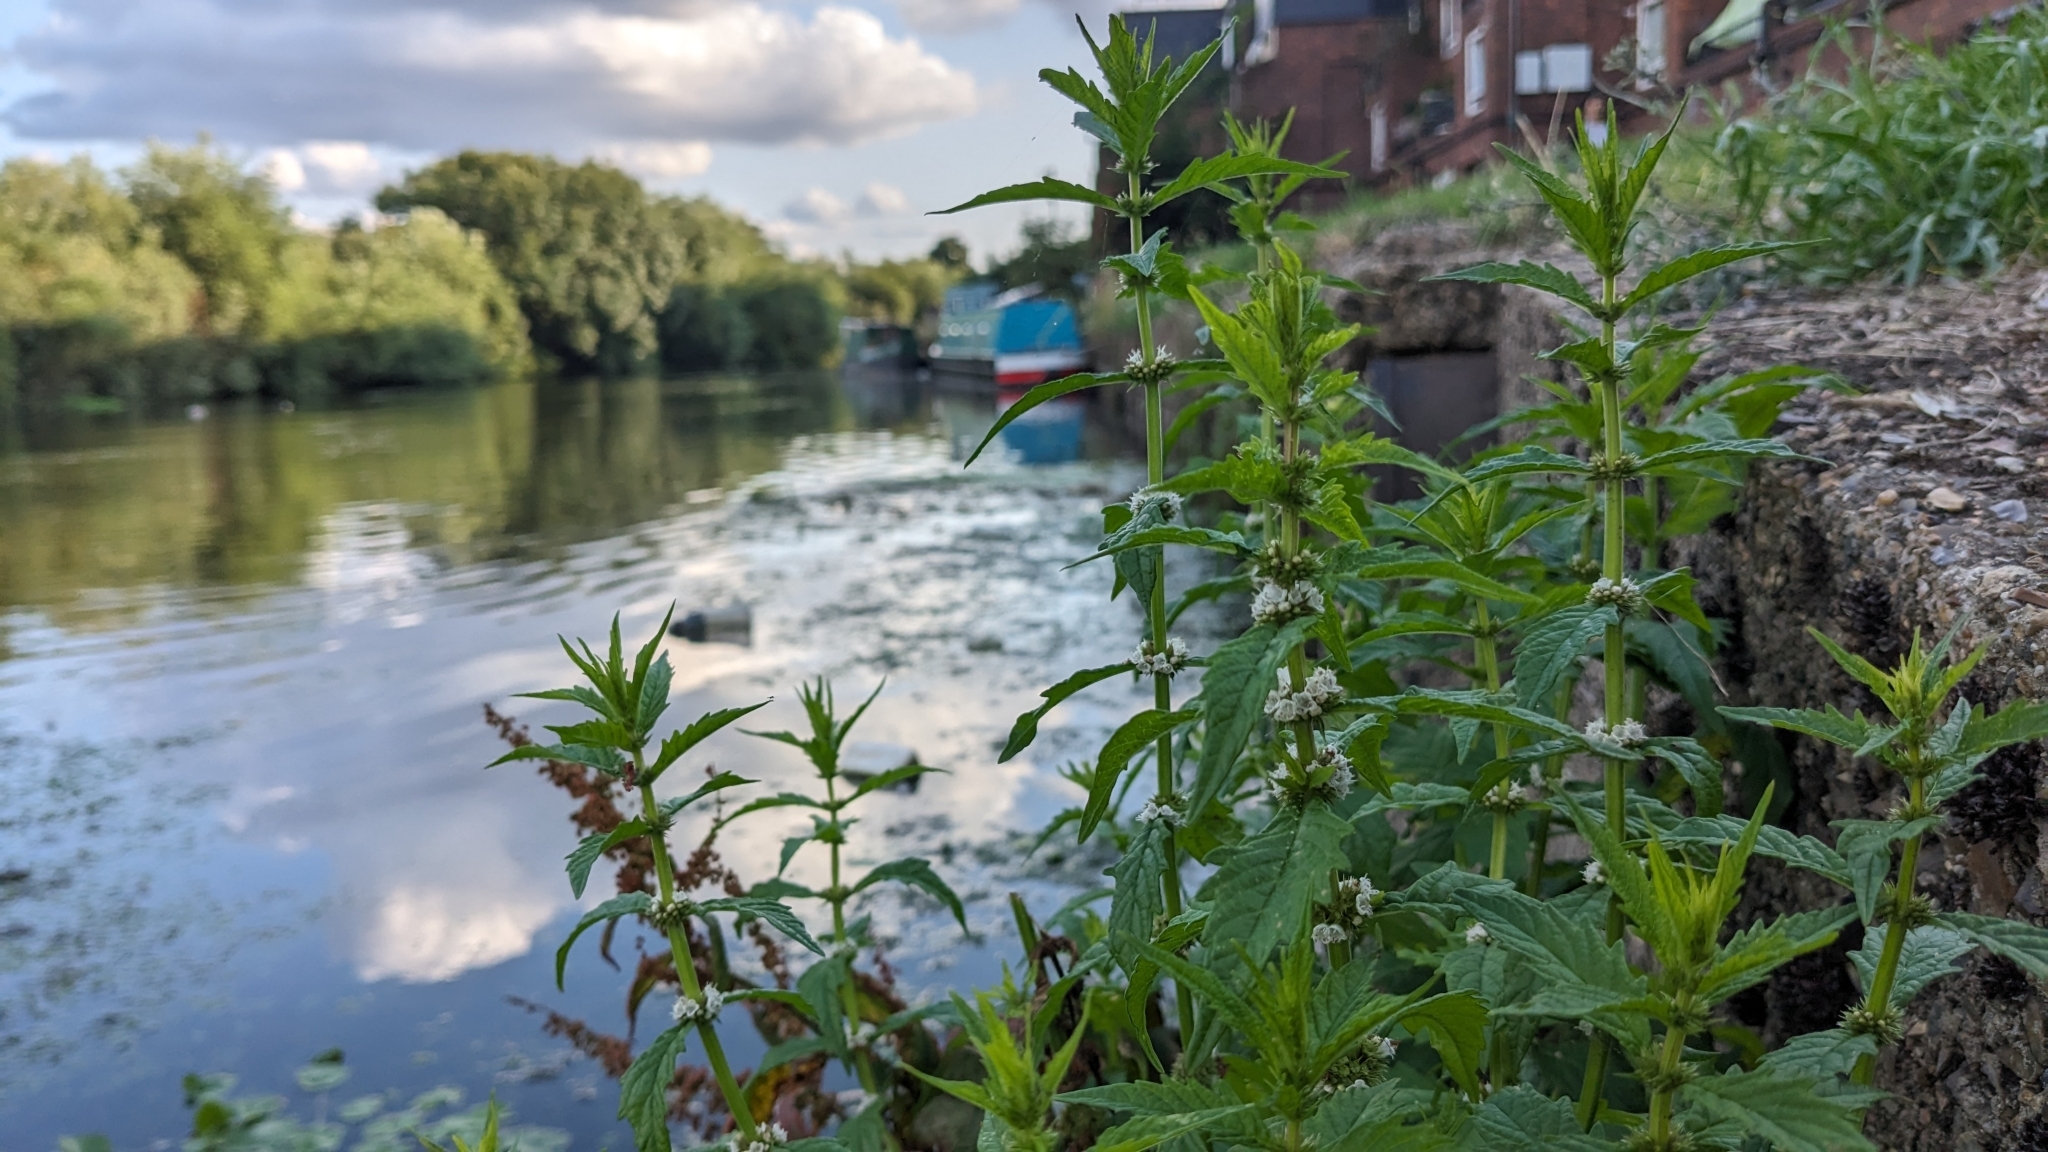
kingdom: Plantae
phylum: Tracheophyta
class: Magnoliopsida
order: Lamiales
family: Lamiaceae
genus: Lycopus
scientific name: Lycopus europaeus
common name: European bugleweed
